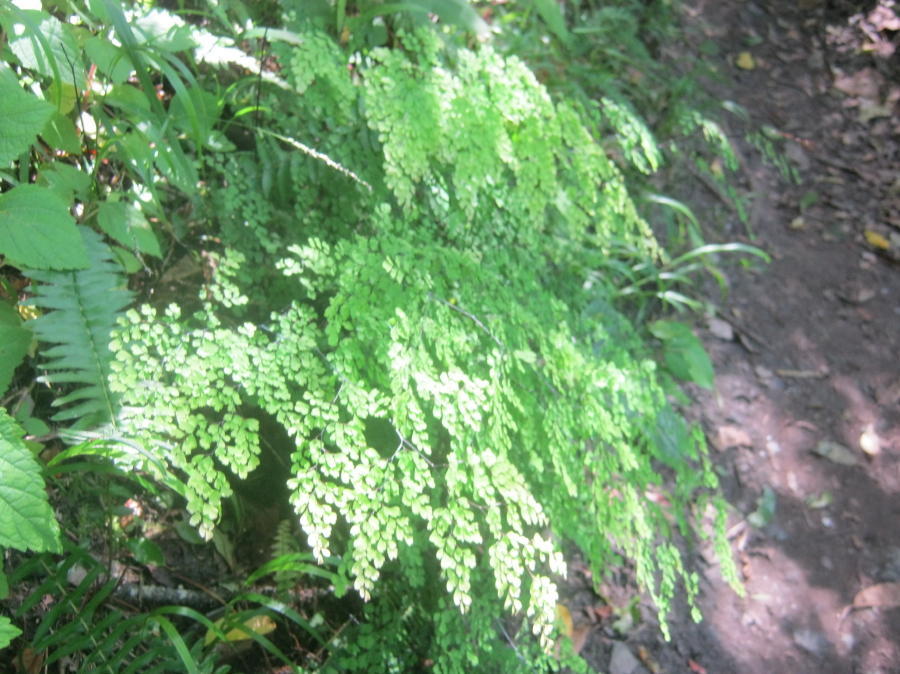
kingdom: Plantae
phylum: Tracheophyta
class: Polypodiopsida
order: Polypodiales
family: Pteridaceae
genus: Adiantum
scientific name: Adiantum capillus-veneris
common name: Maidenhair fern
